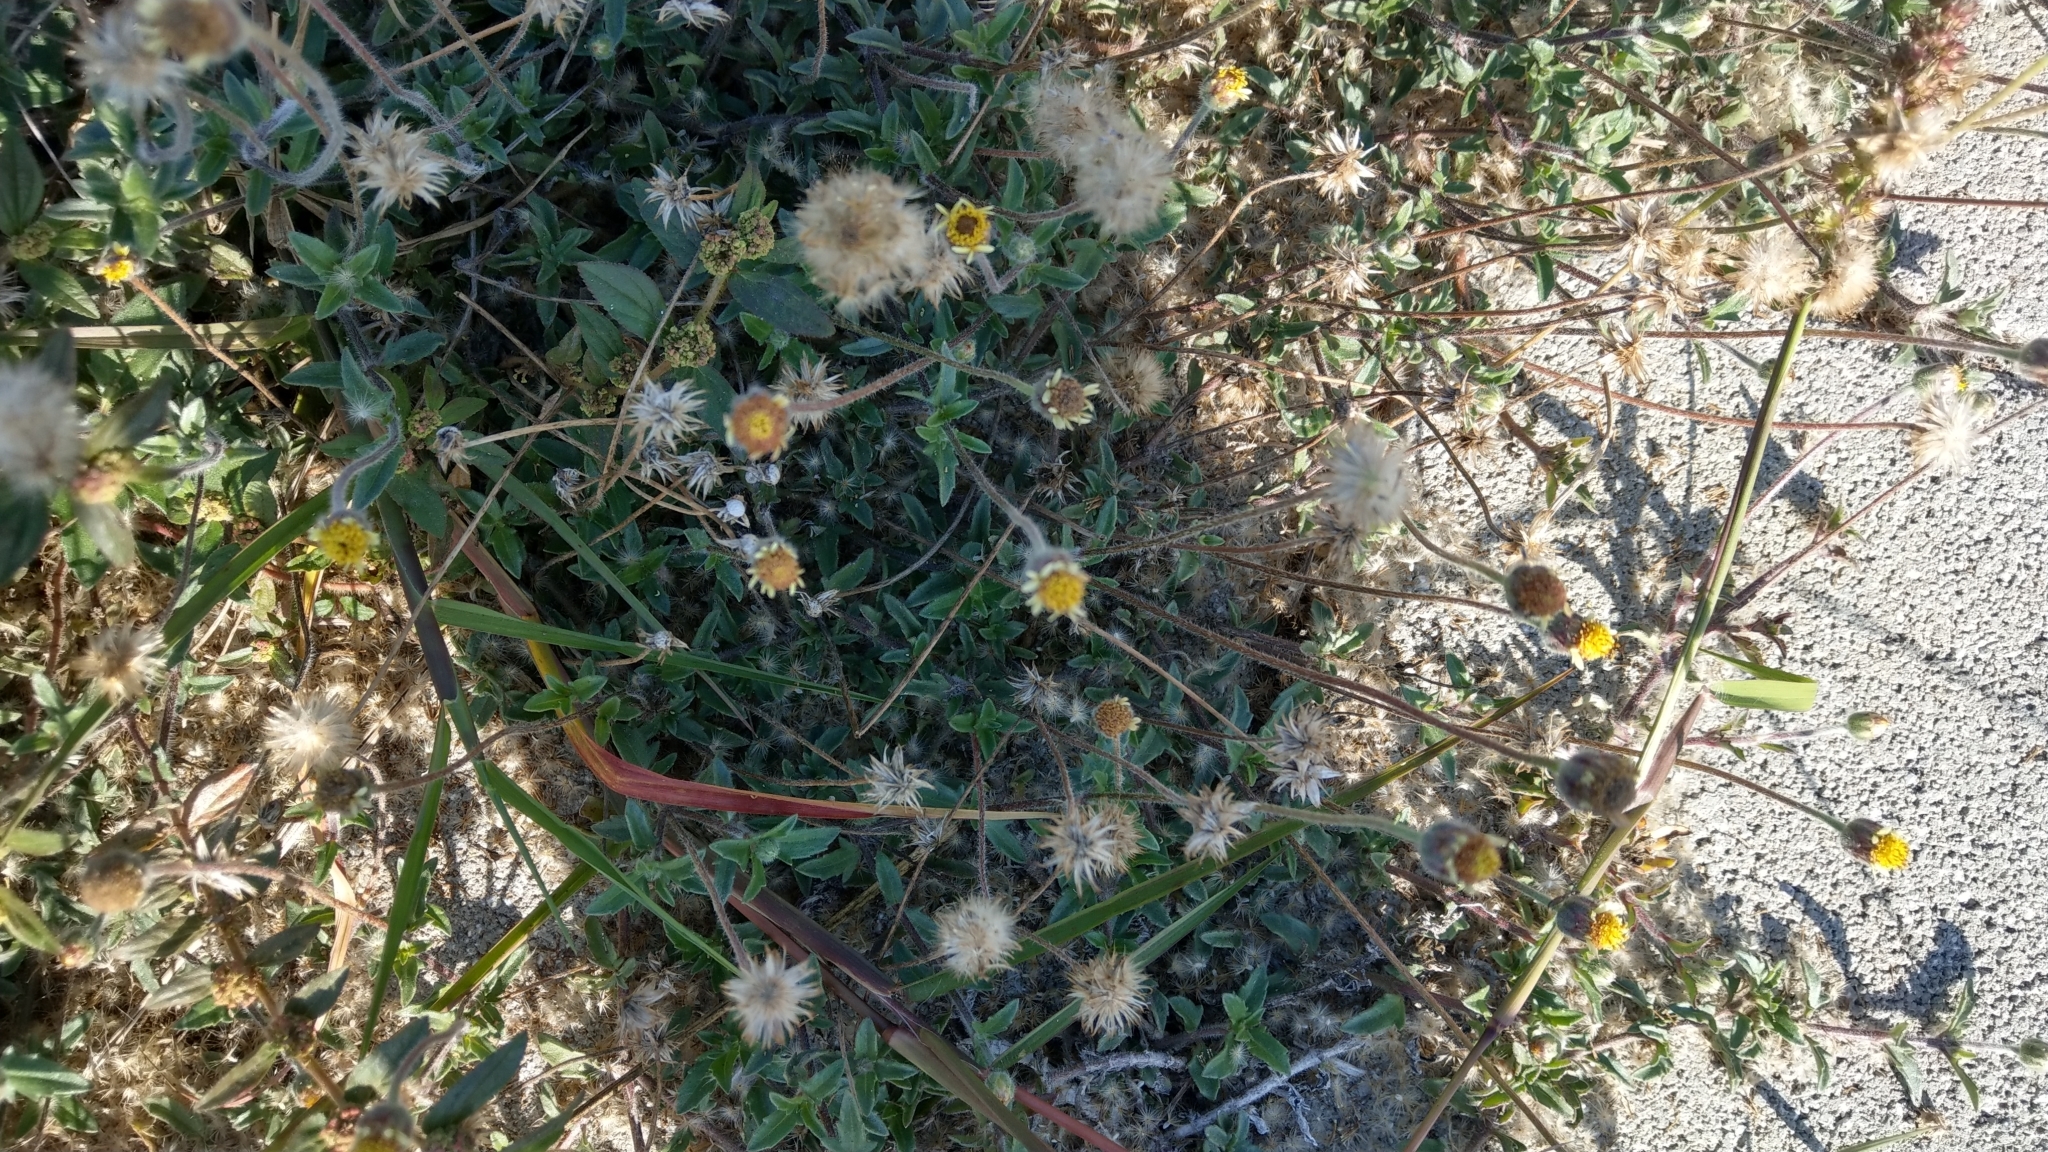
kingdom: Plantae
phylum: Tracheophyta
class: Magnoliopsida
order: Asterales
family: Asteraceae
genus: Tridax
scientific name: Tridax procumbens
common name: Coatbuttons
